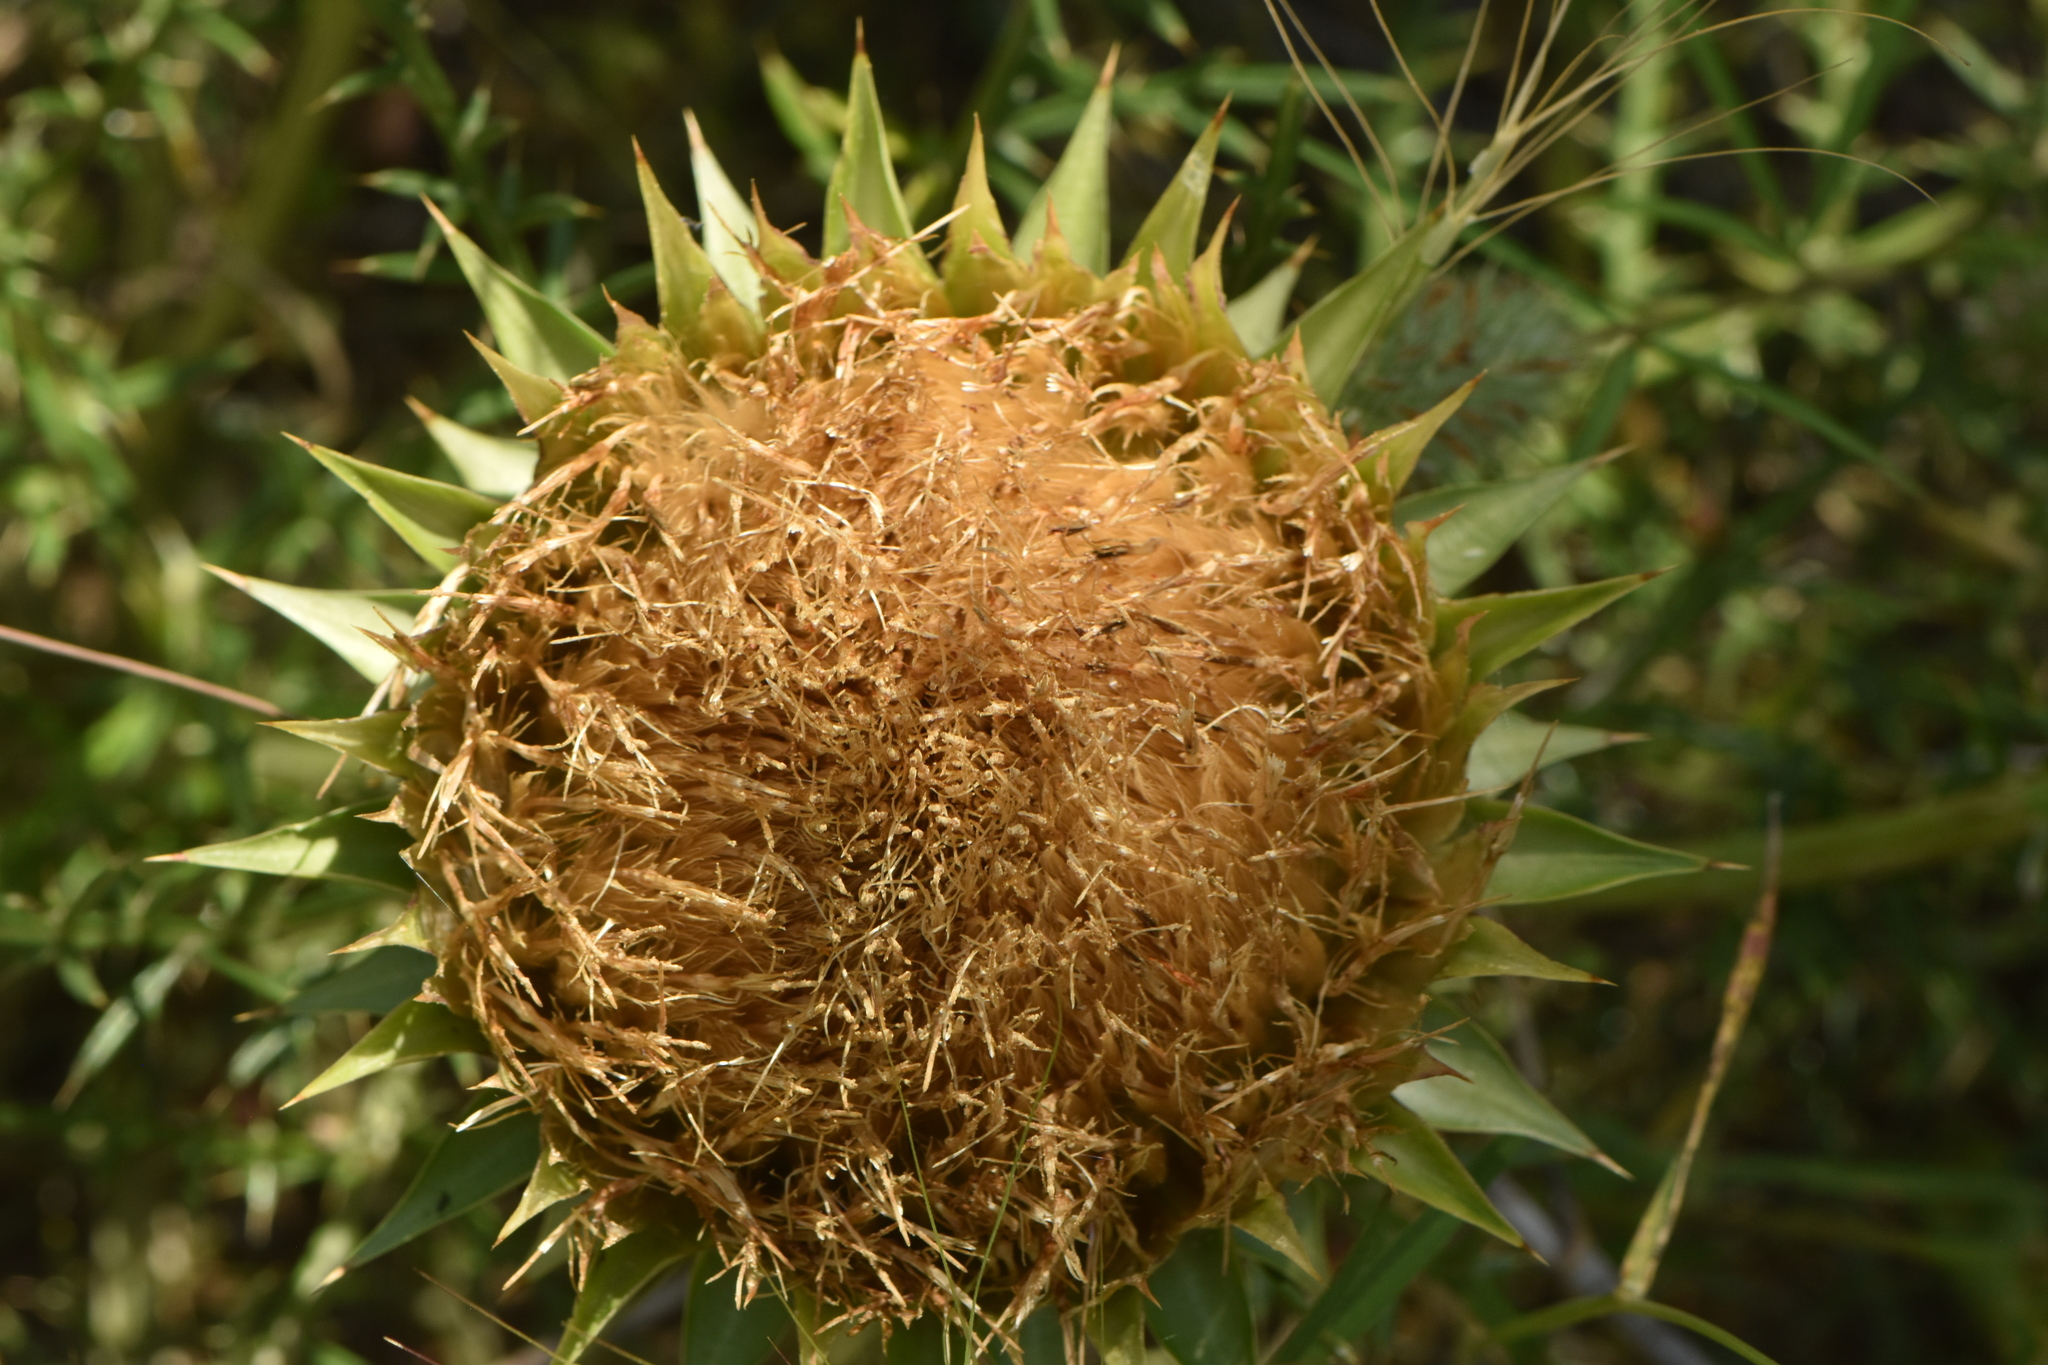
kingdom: Plantae
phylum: Tracheophyta
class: Magnoliopsida
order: Asterales
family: Asteraceae
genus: Cynara
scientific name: Cynara humilis
